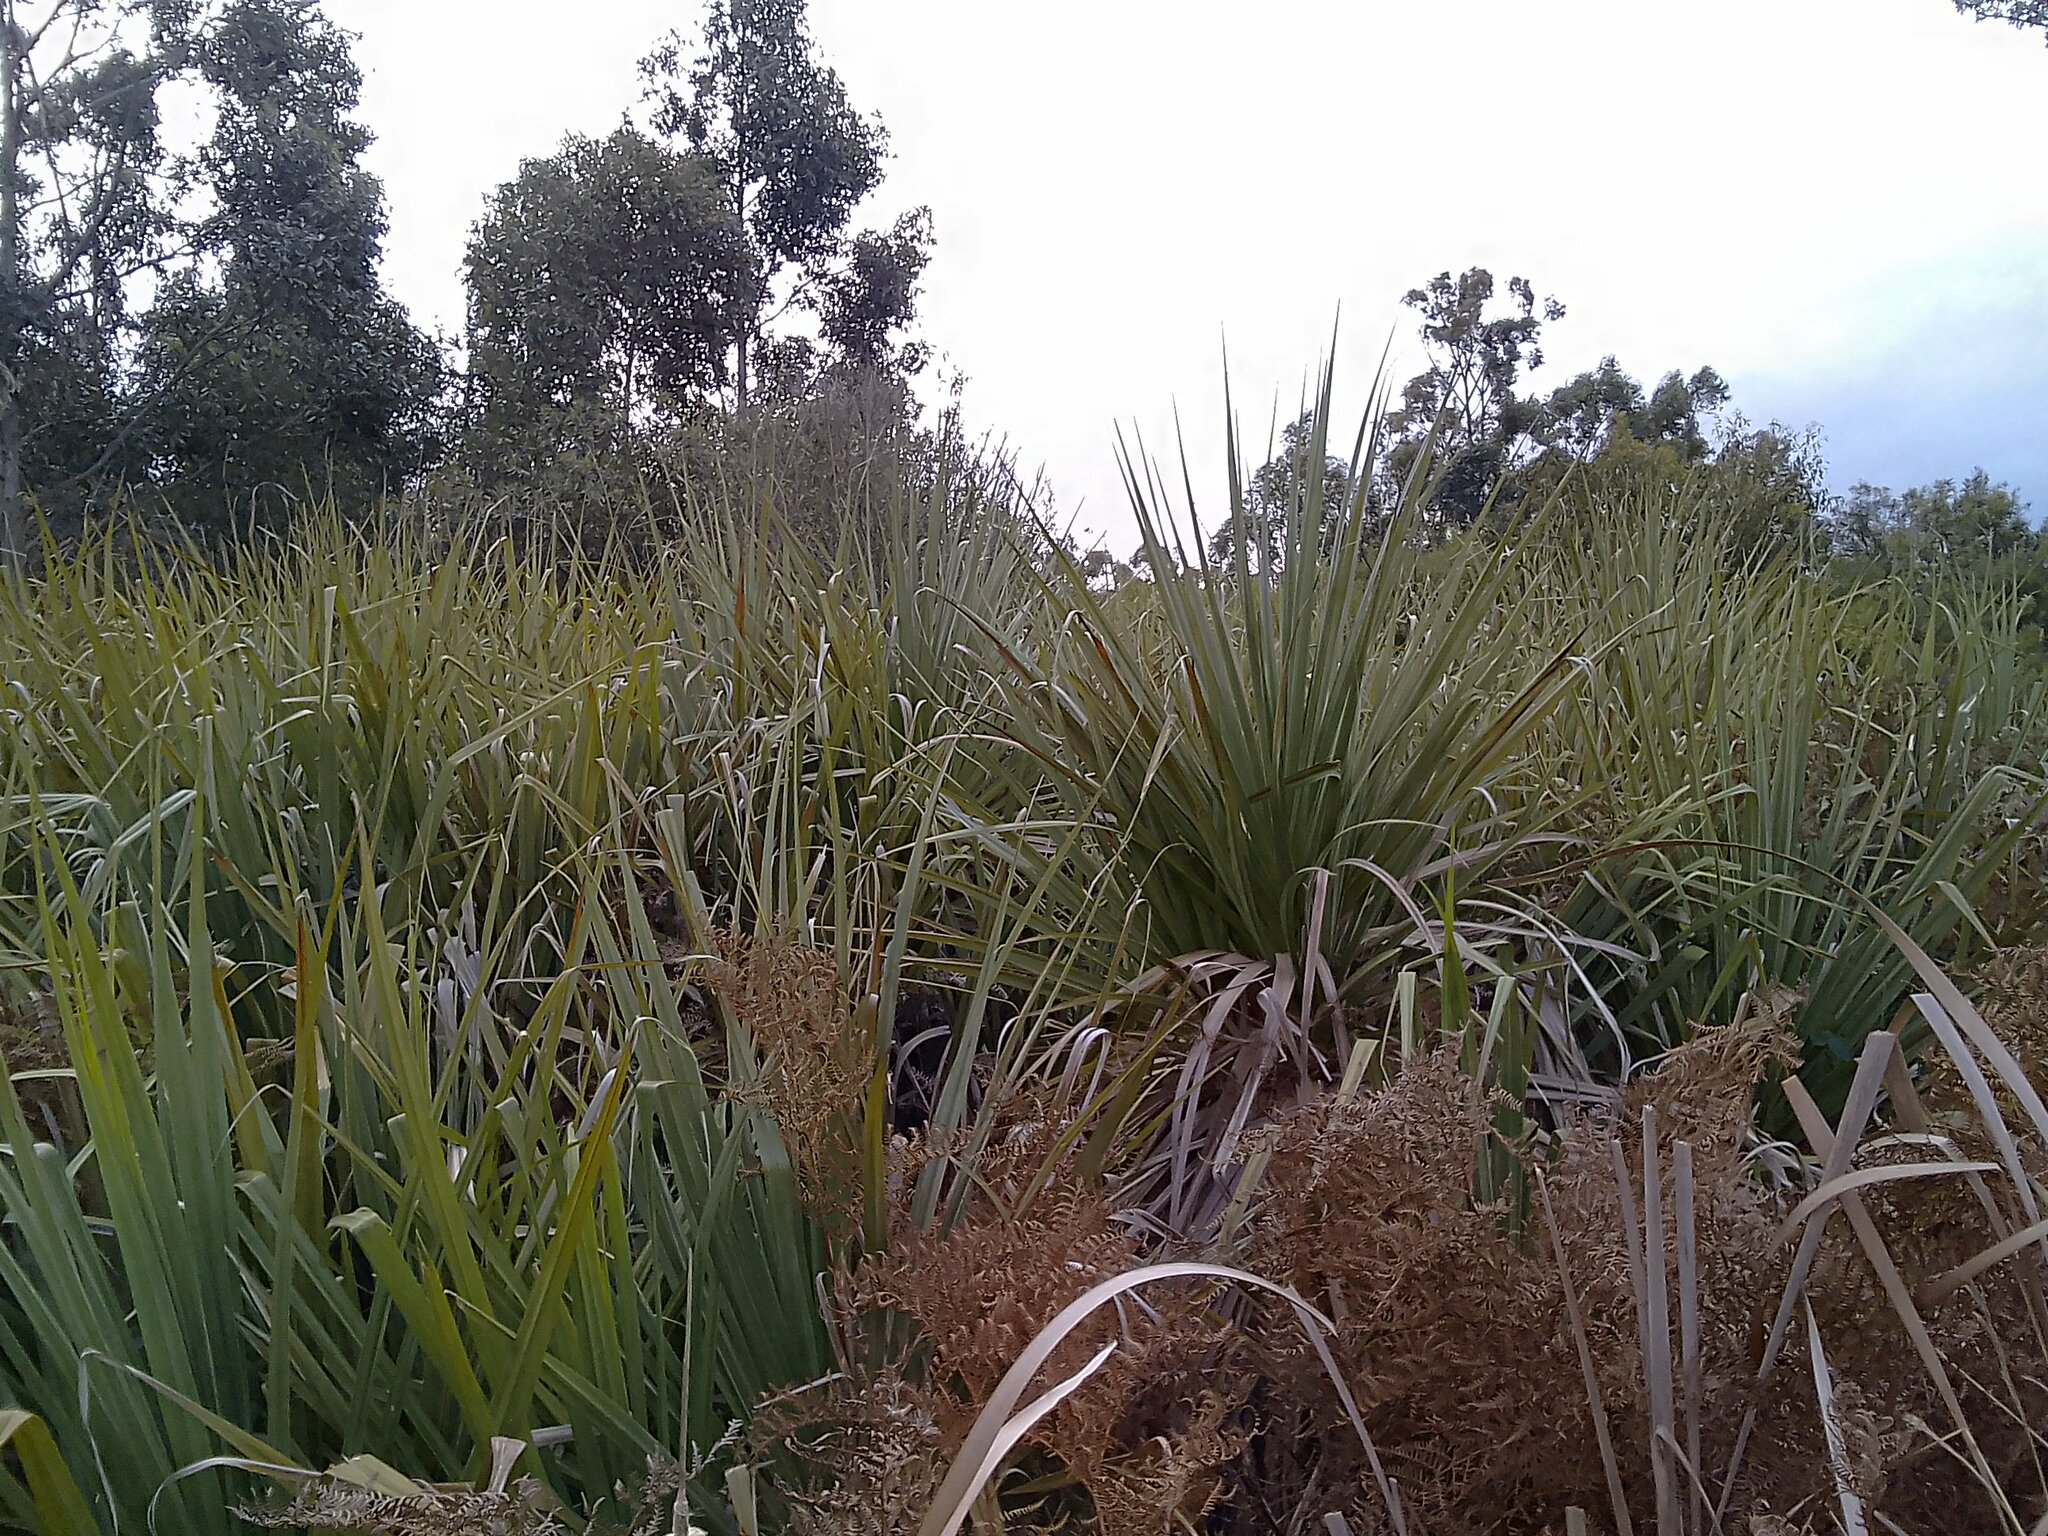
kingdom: Plantae
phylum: Tracheophyta
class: Liliopsida
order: Poales
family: Thurniaceae
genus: Prionium
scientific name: Prionium serratum
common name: Palmiet
